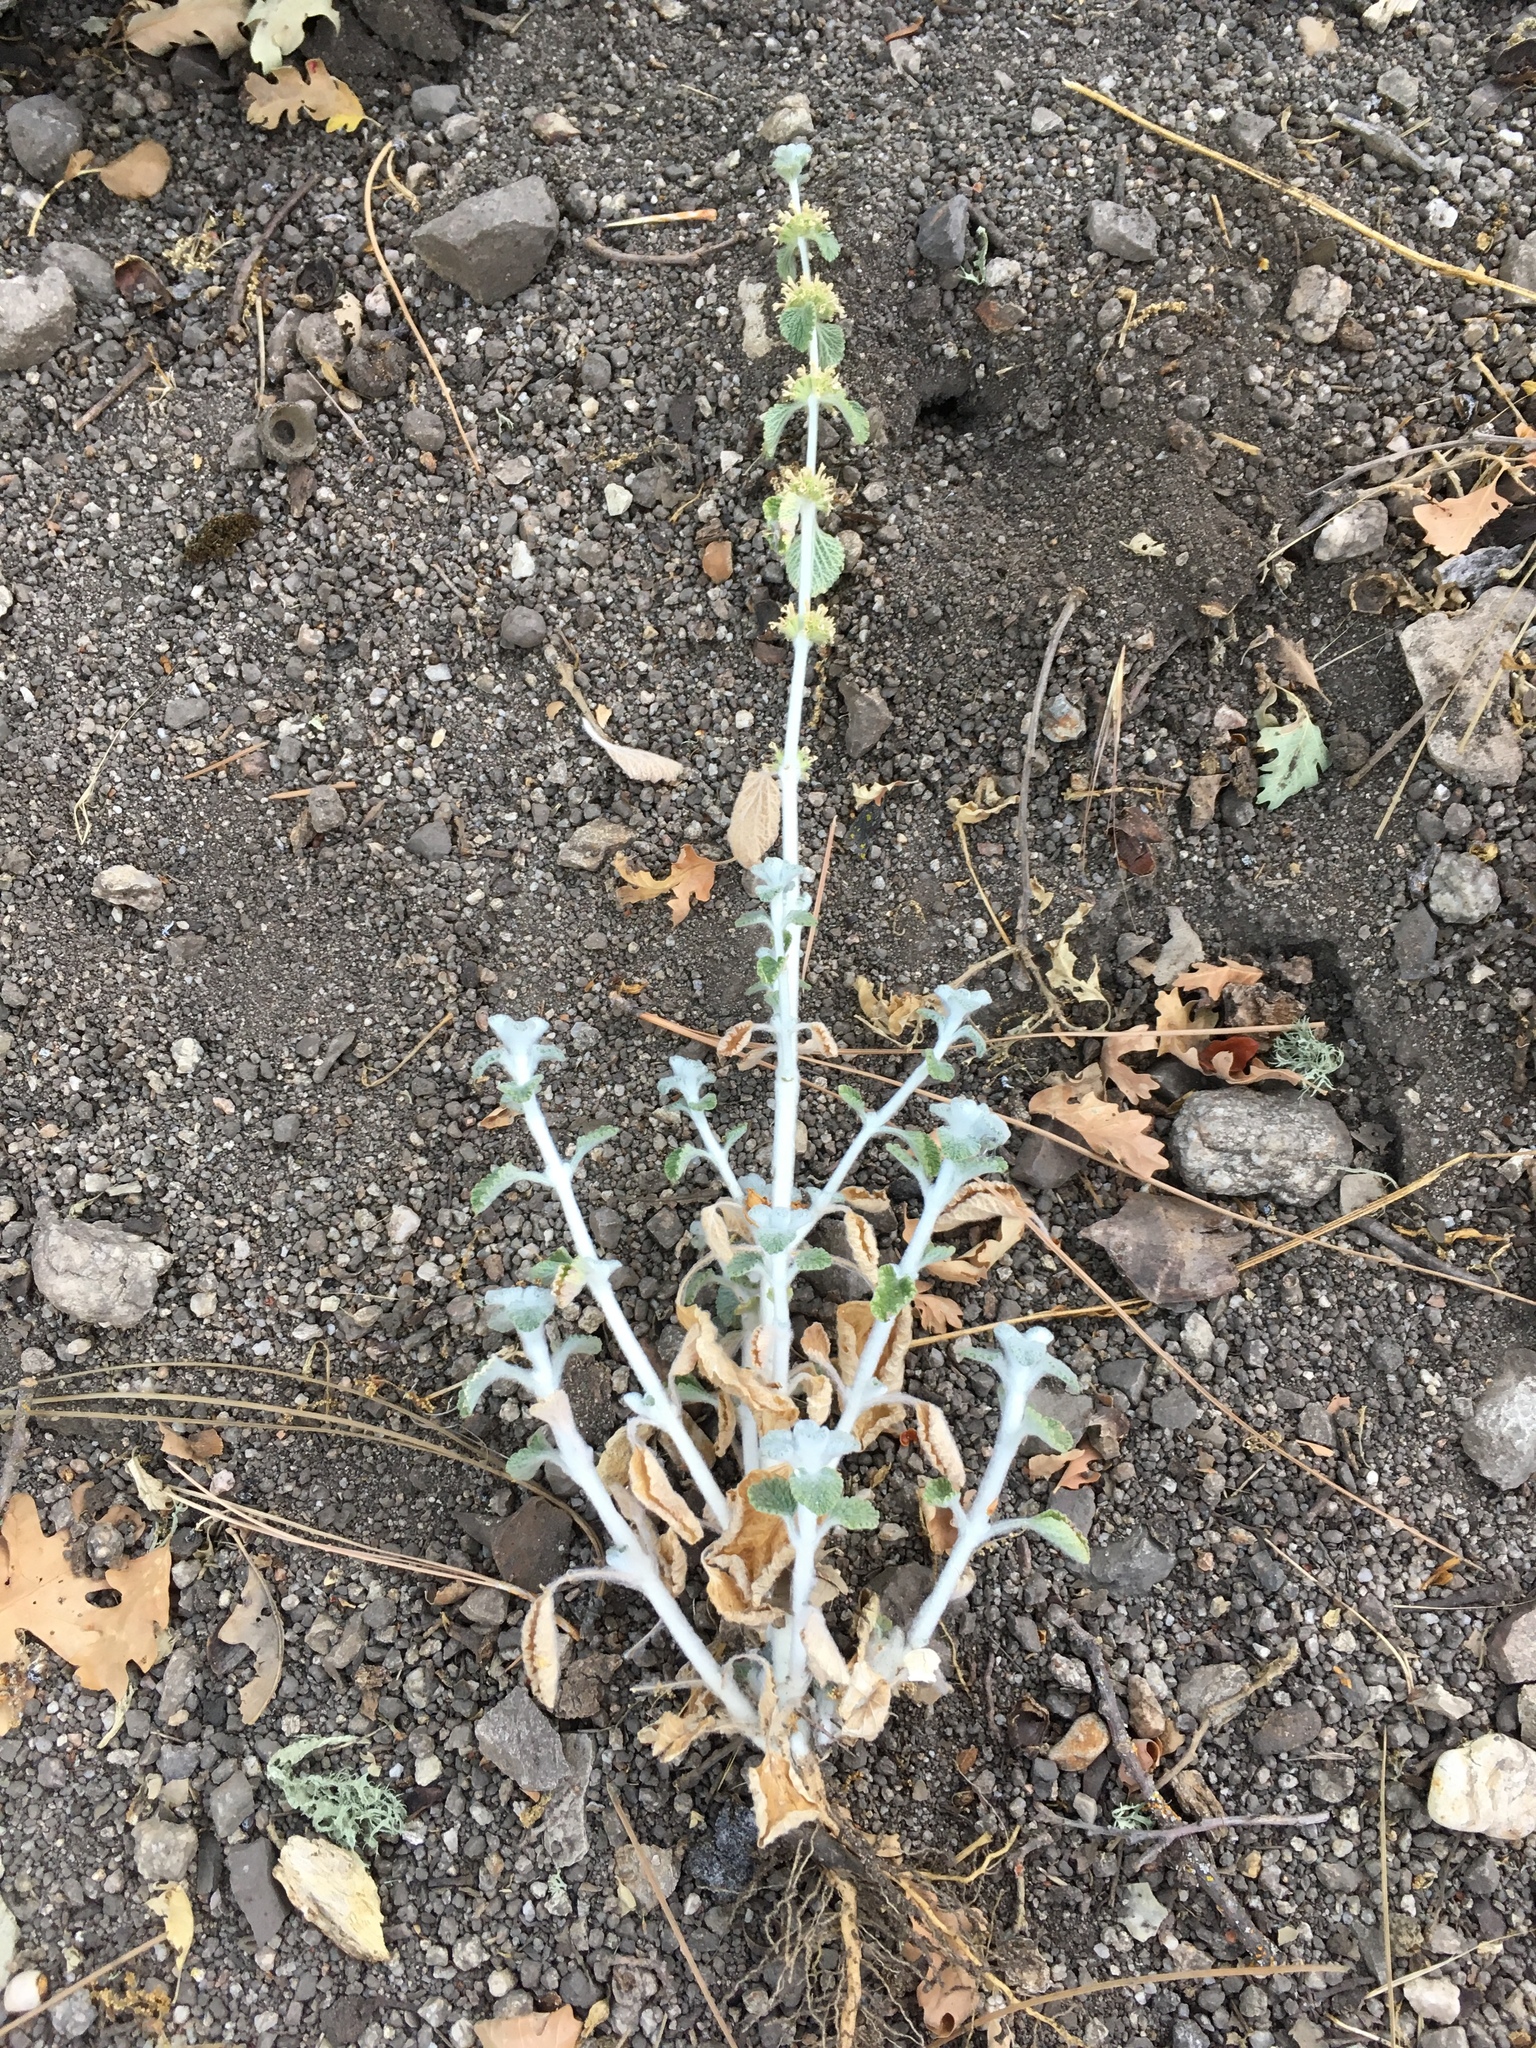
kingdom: Plantae
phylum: Tracheophyta
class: Magnoliopsida
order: Lamiales
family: Lamiaceae
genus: Marrubium
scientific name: Marrubium vulgare
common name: Horehound
